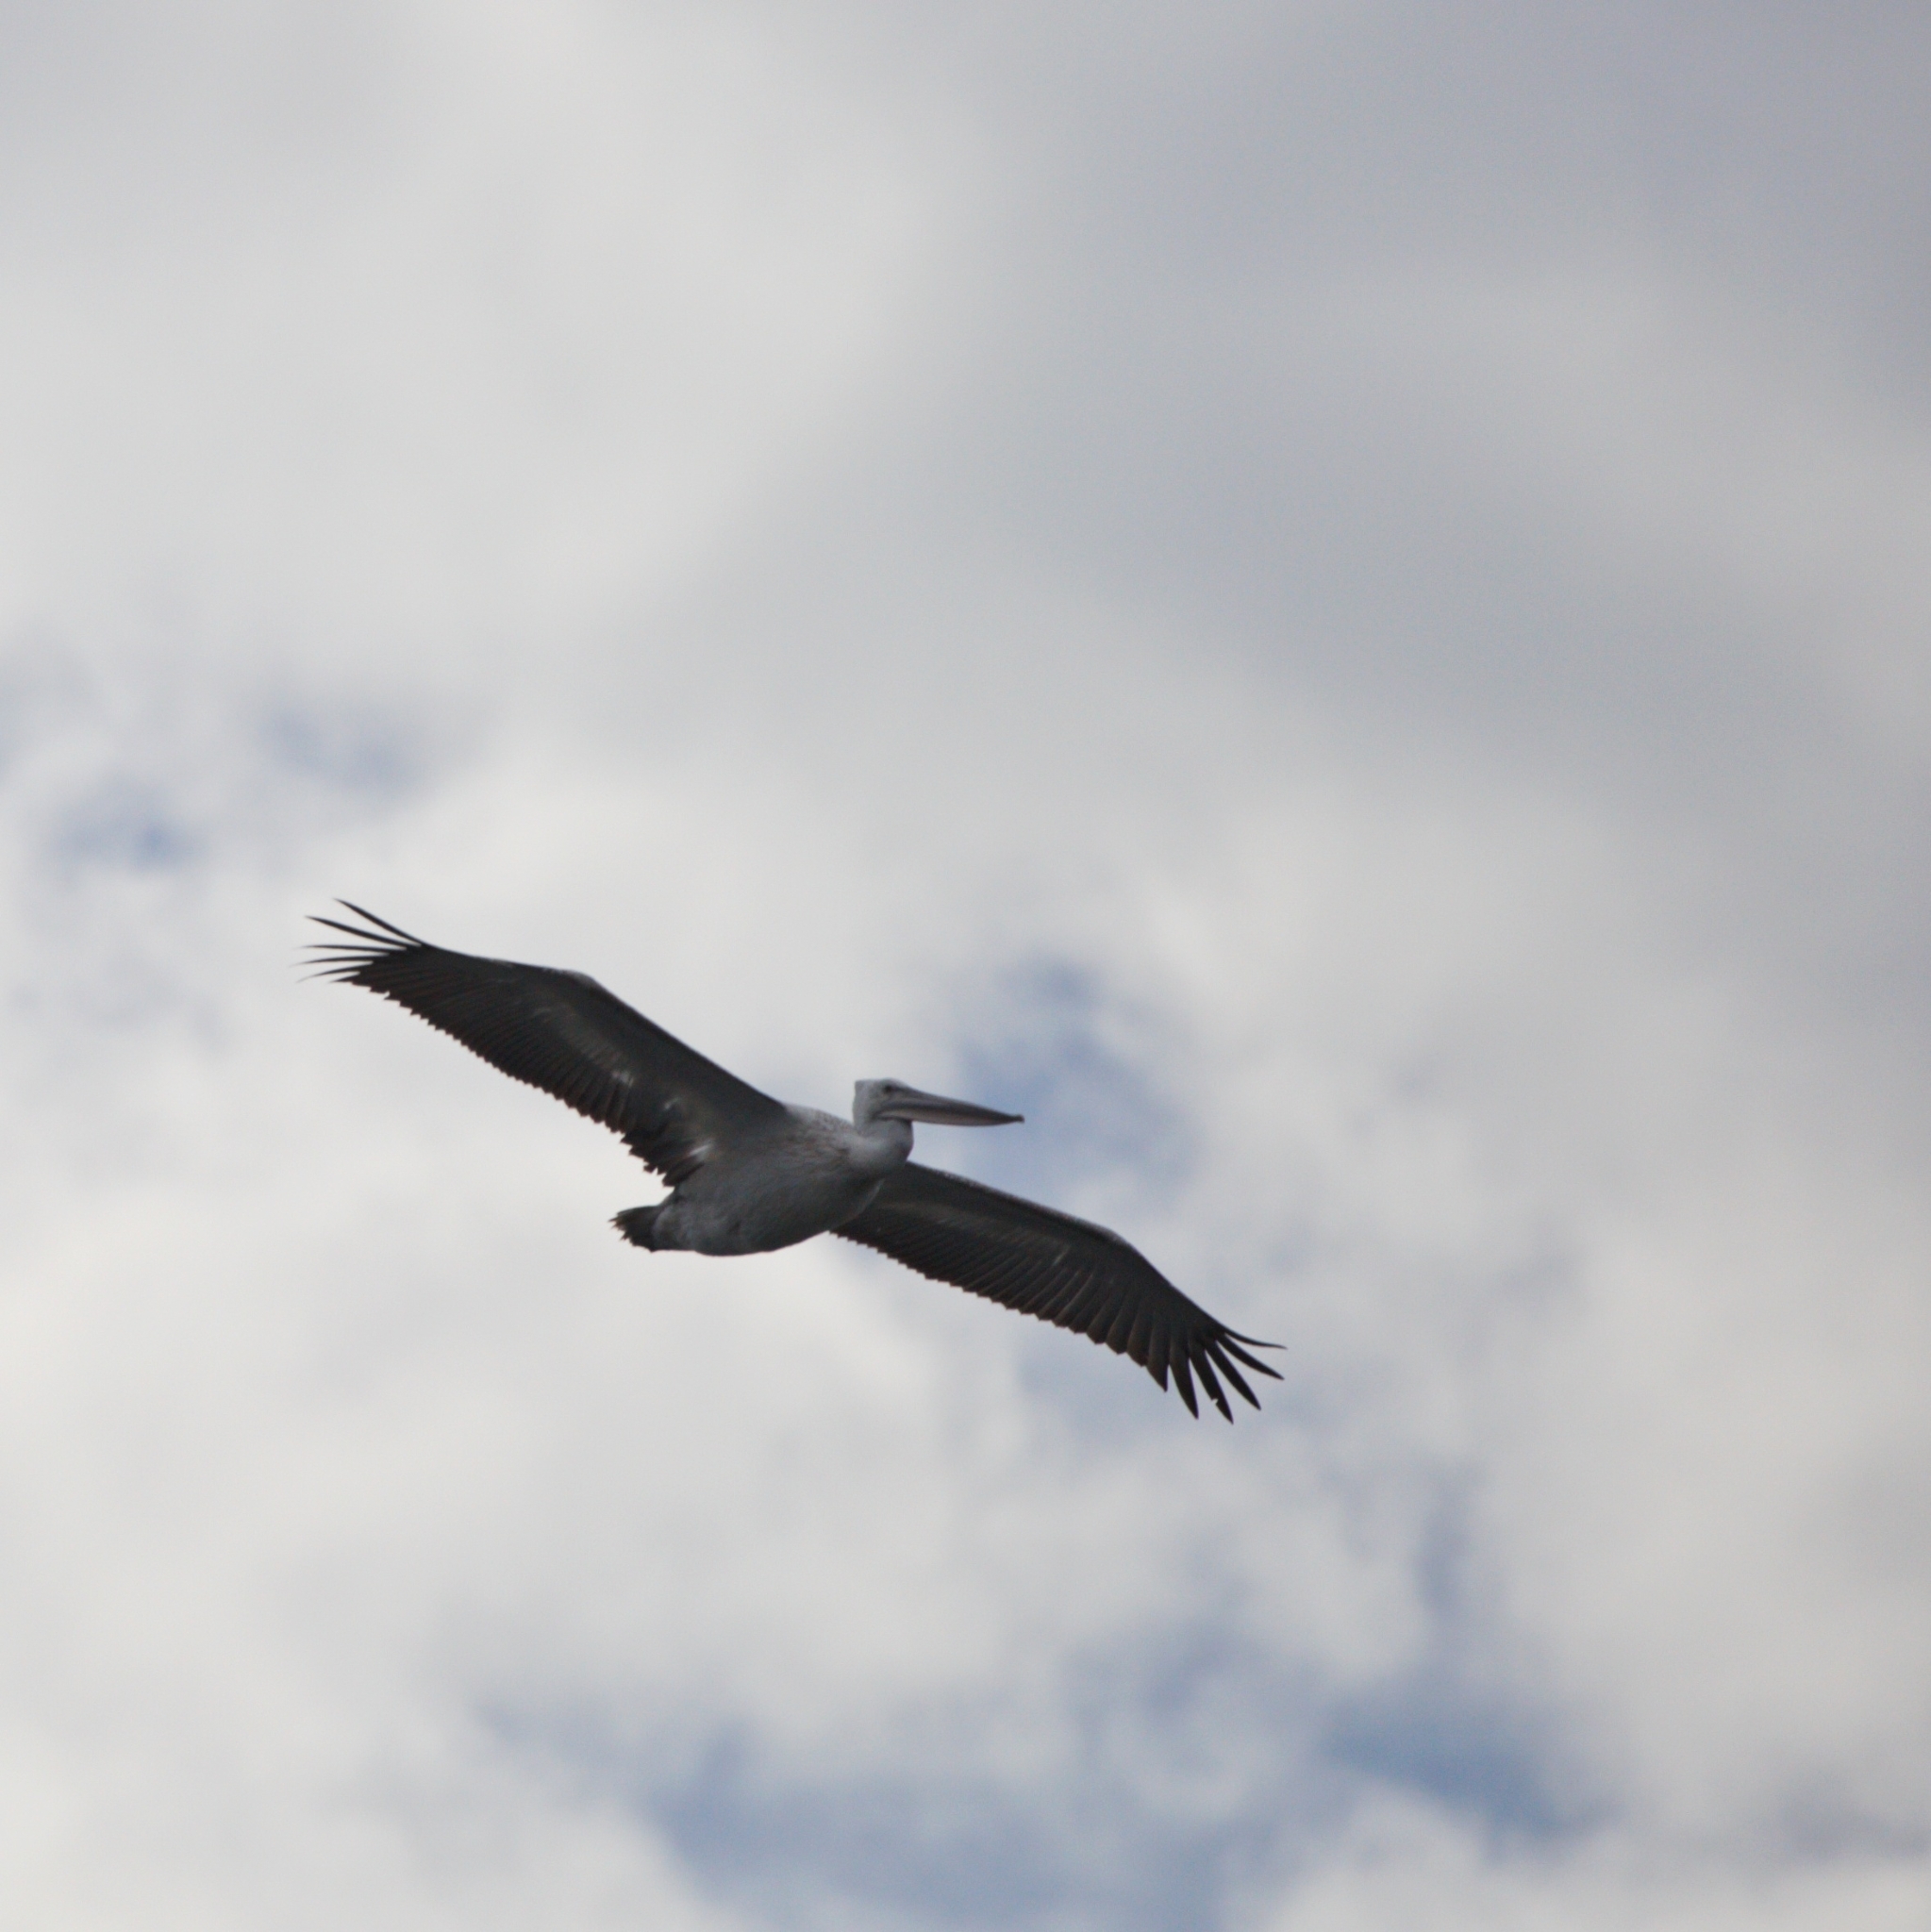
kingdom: Animalia
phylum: Chordata
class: Aves
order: Pelecaniformes
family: Pelecanidae
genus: Pelecanus
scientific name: Pelecanus crispus
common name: Dalmatian pelican
